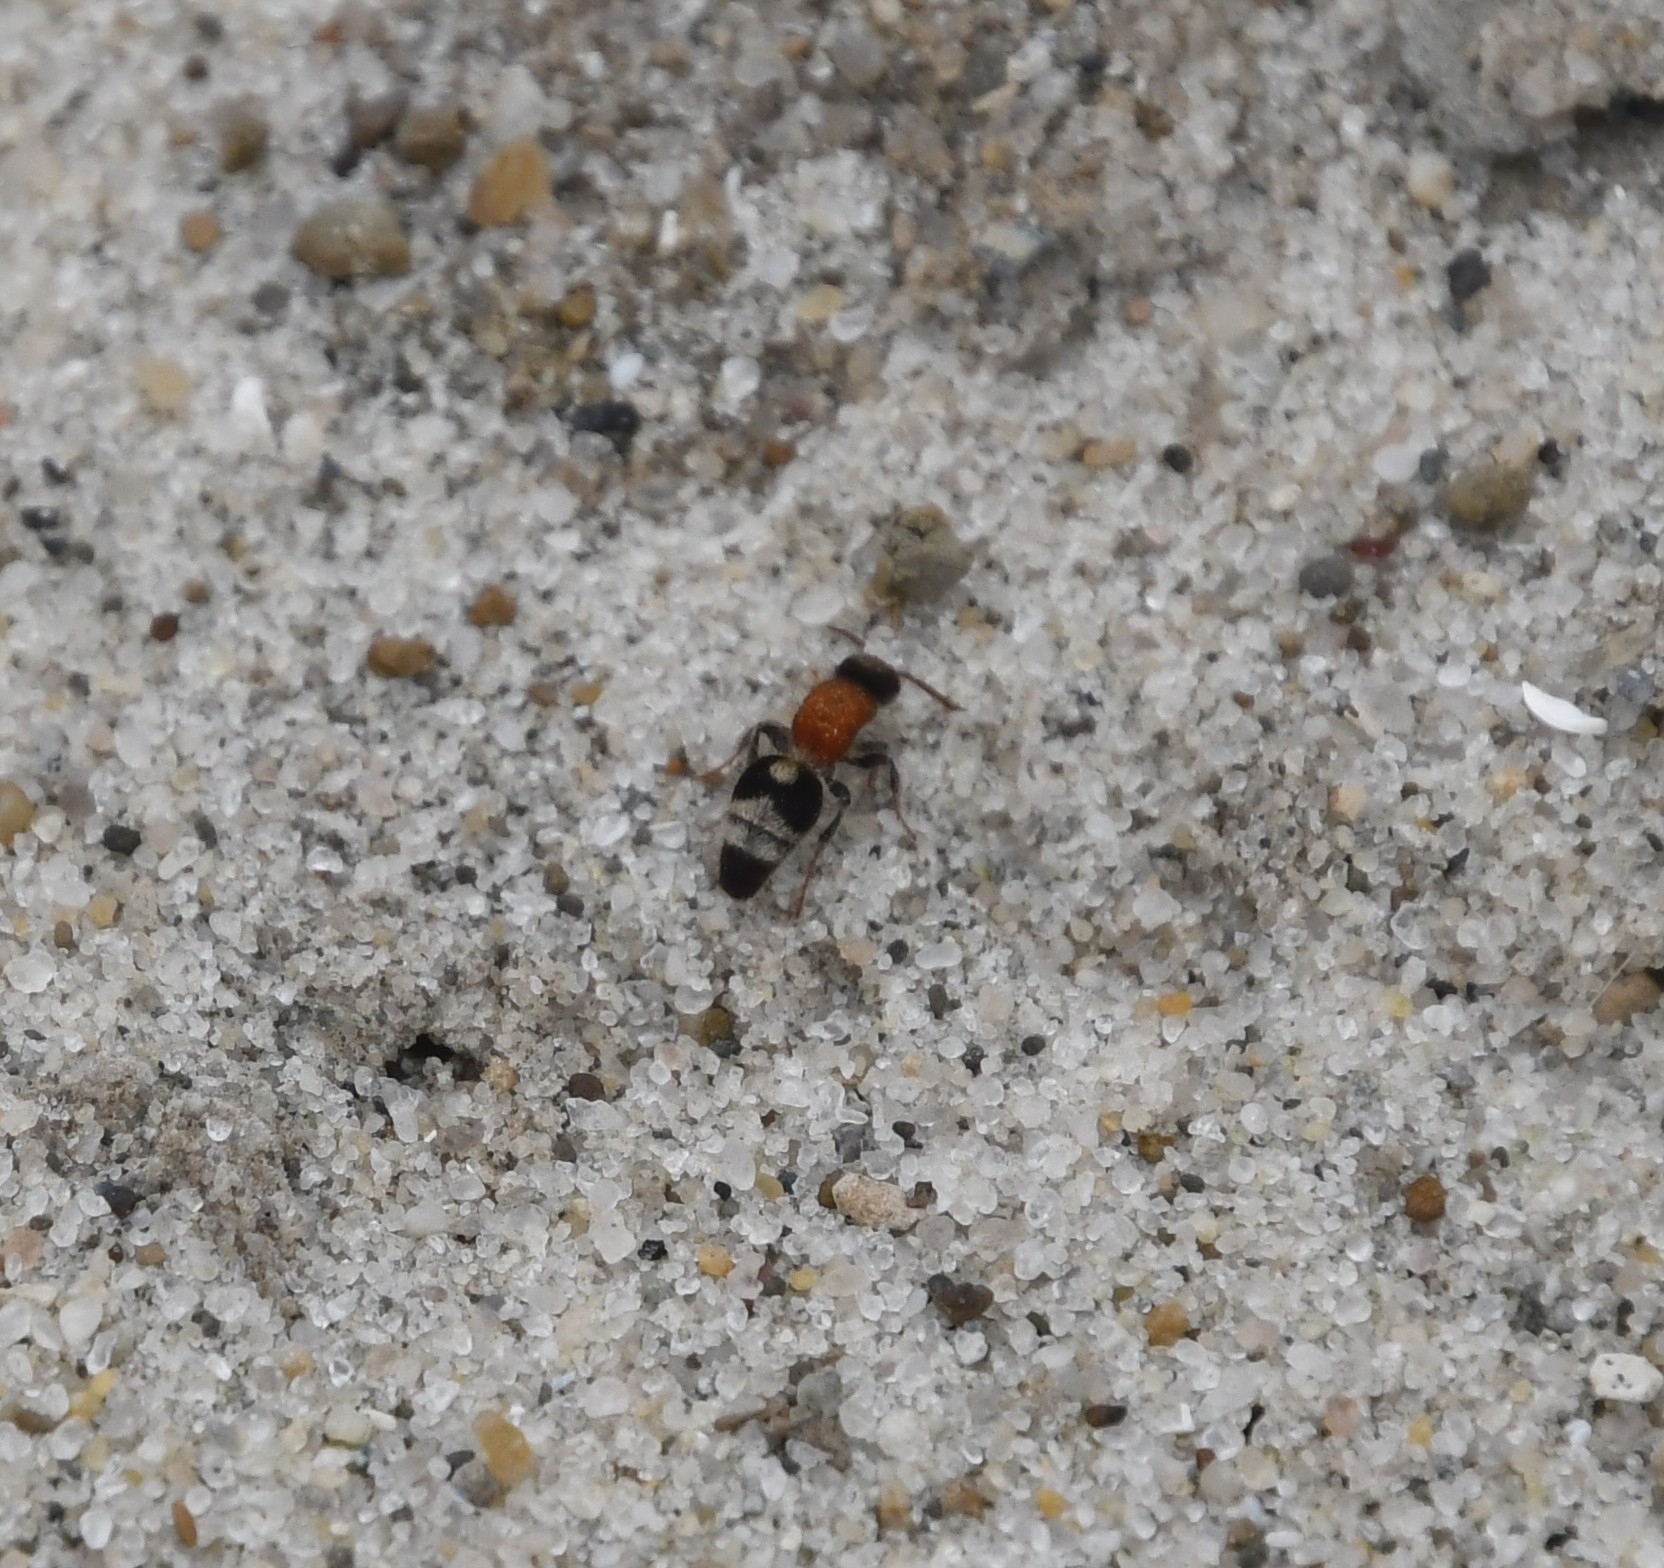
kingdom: Animalia
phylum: Arthropoda
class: Insecta
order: Hymenoptera
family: Mutillidae
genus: Nemka
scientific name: Nemka viduata
